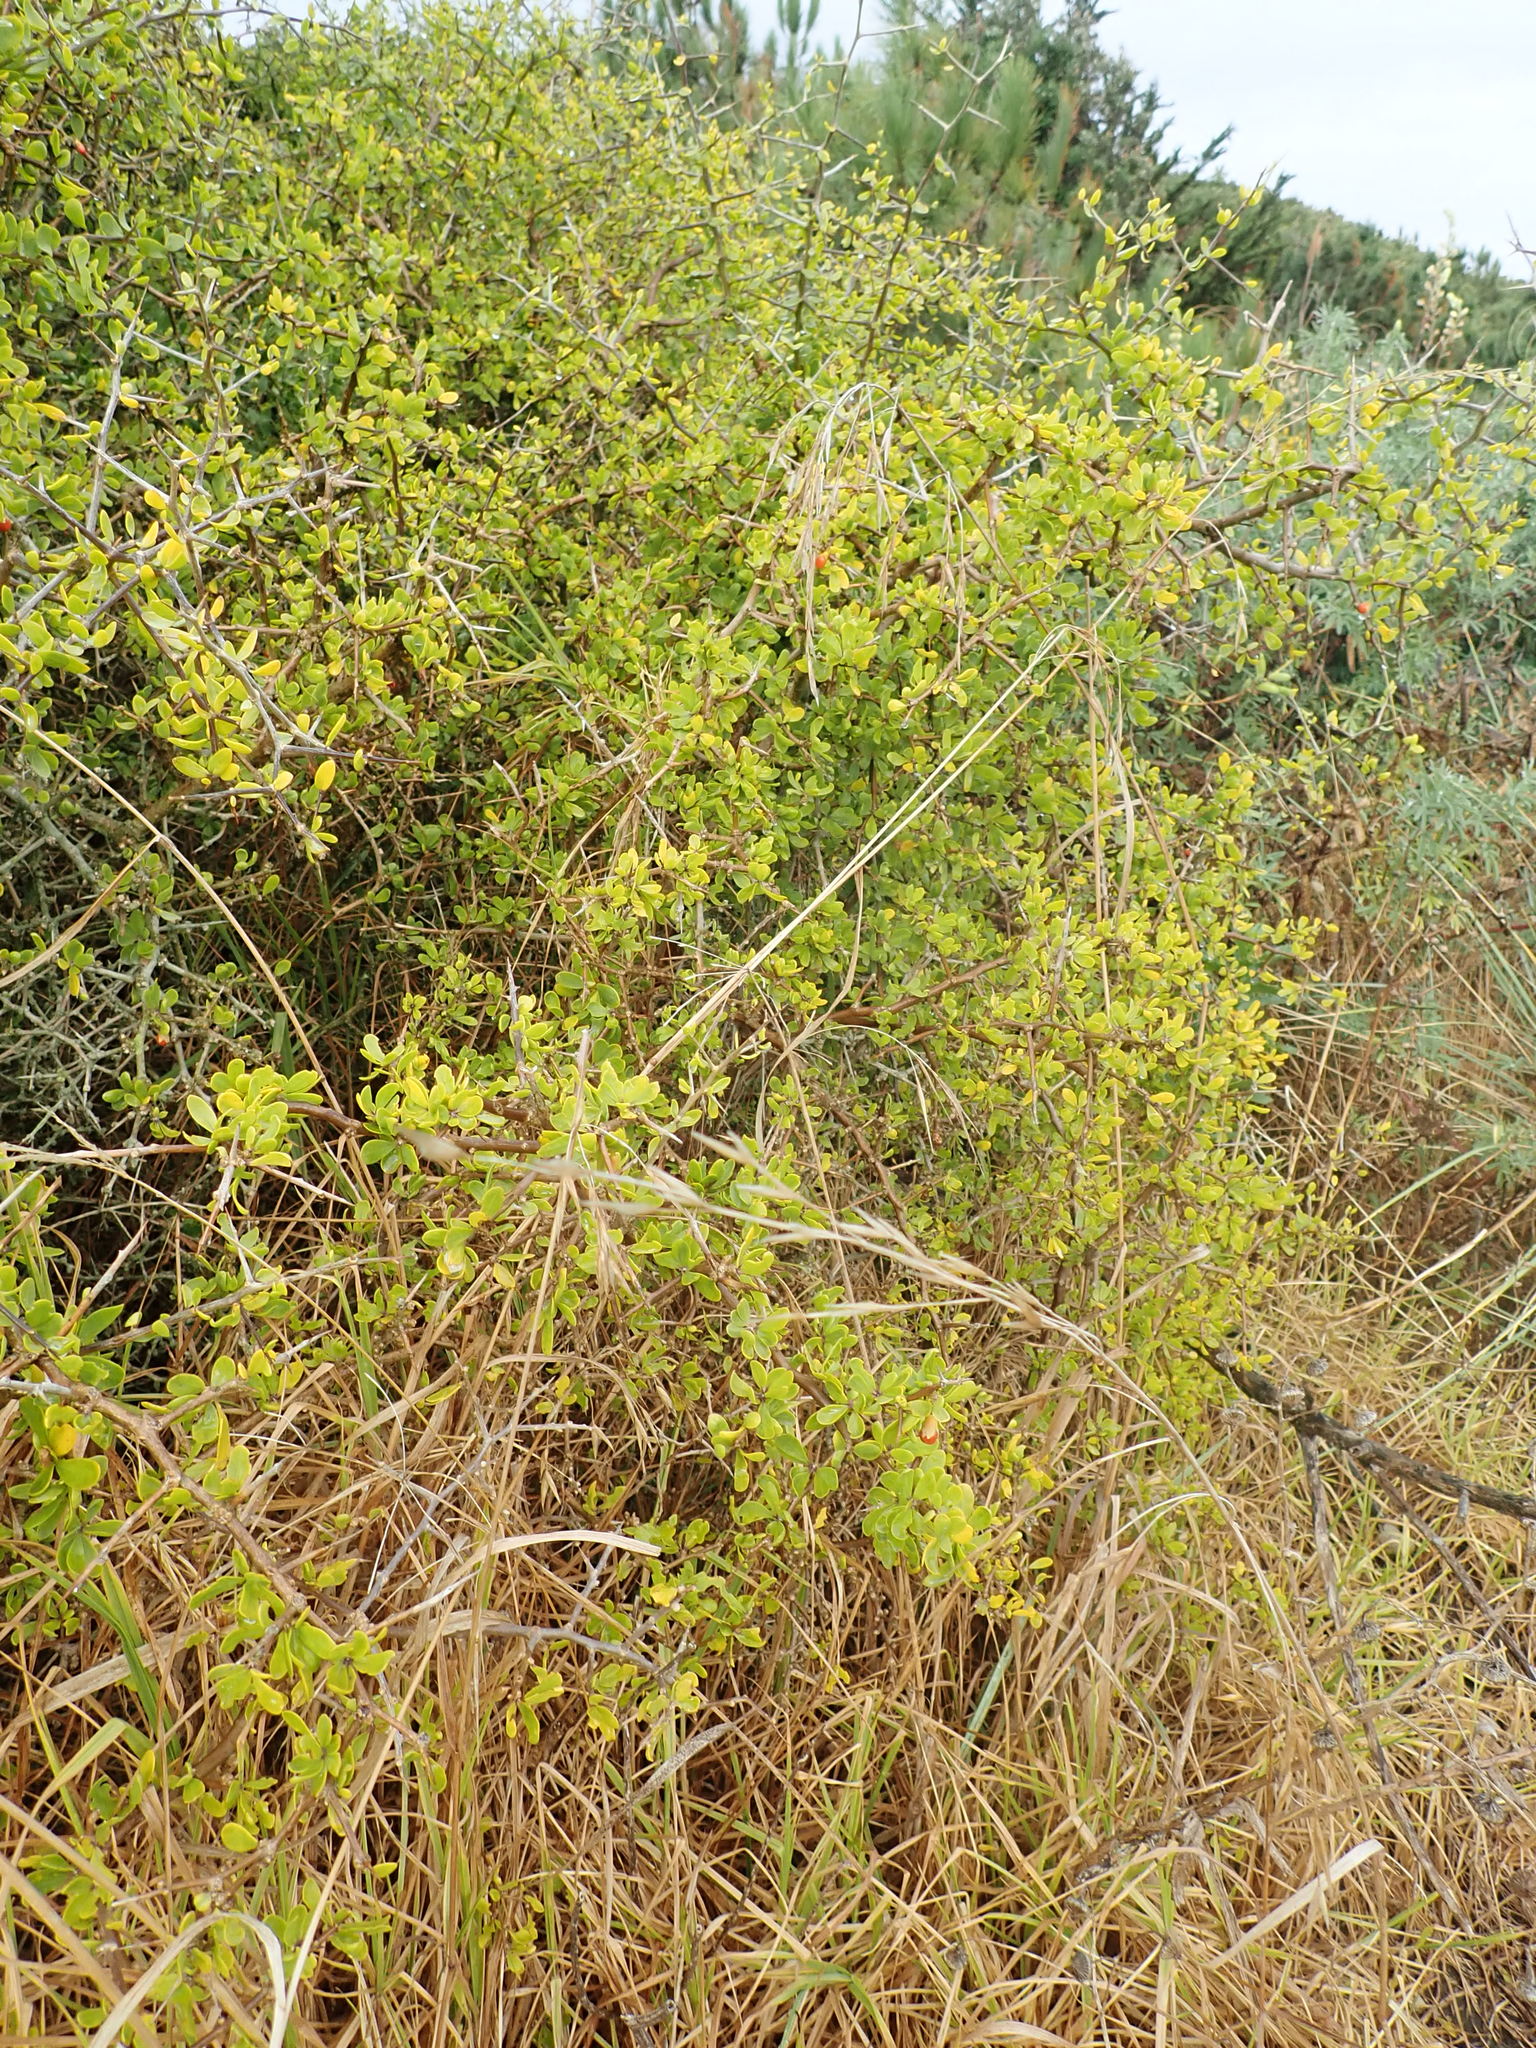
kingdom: Plantae
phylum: Tracheophyta
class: Magnoliopsida
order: Solanales
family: Solanaceae
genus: Lycium
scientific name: Lycium ferocissimum
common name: African boxthorn
